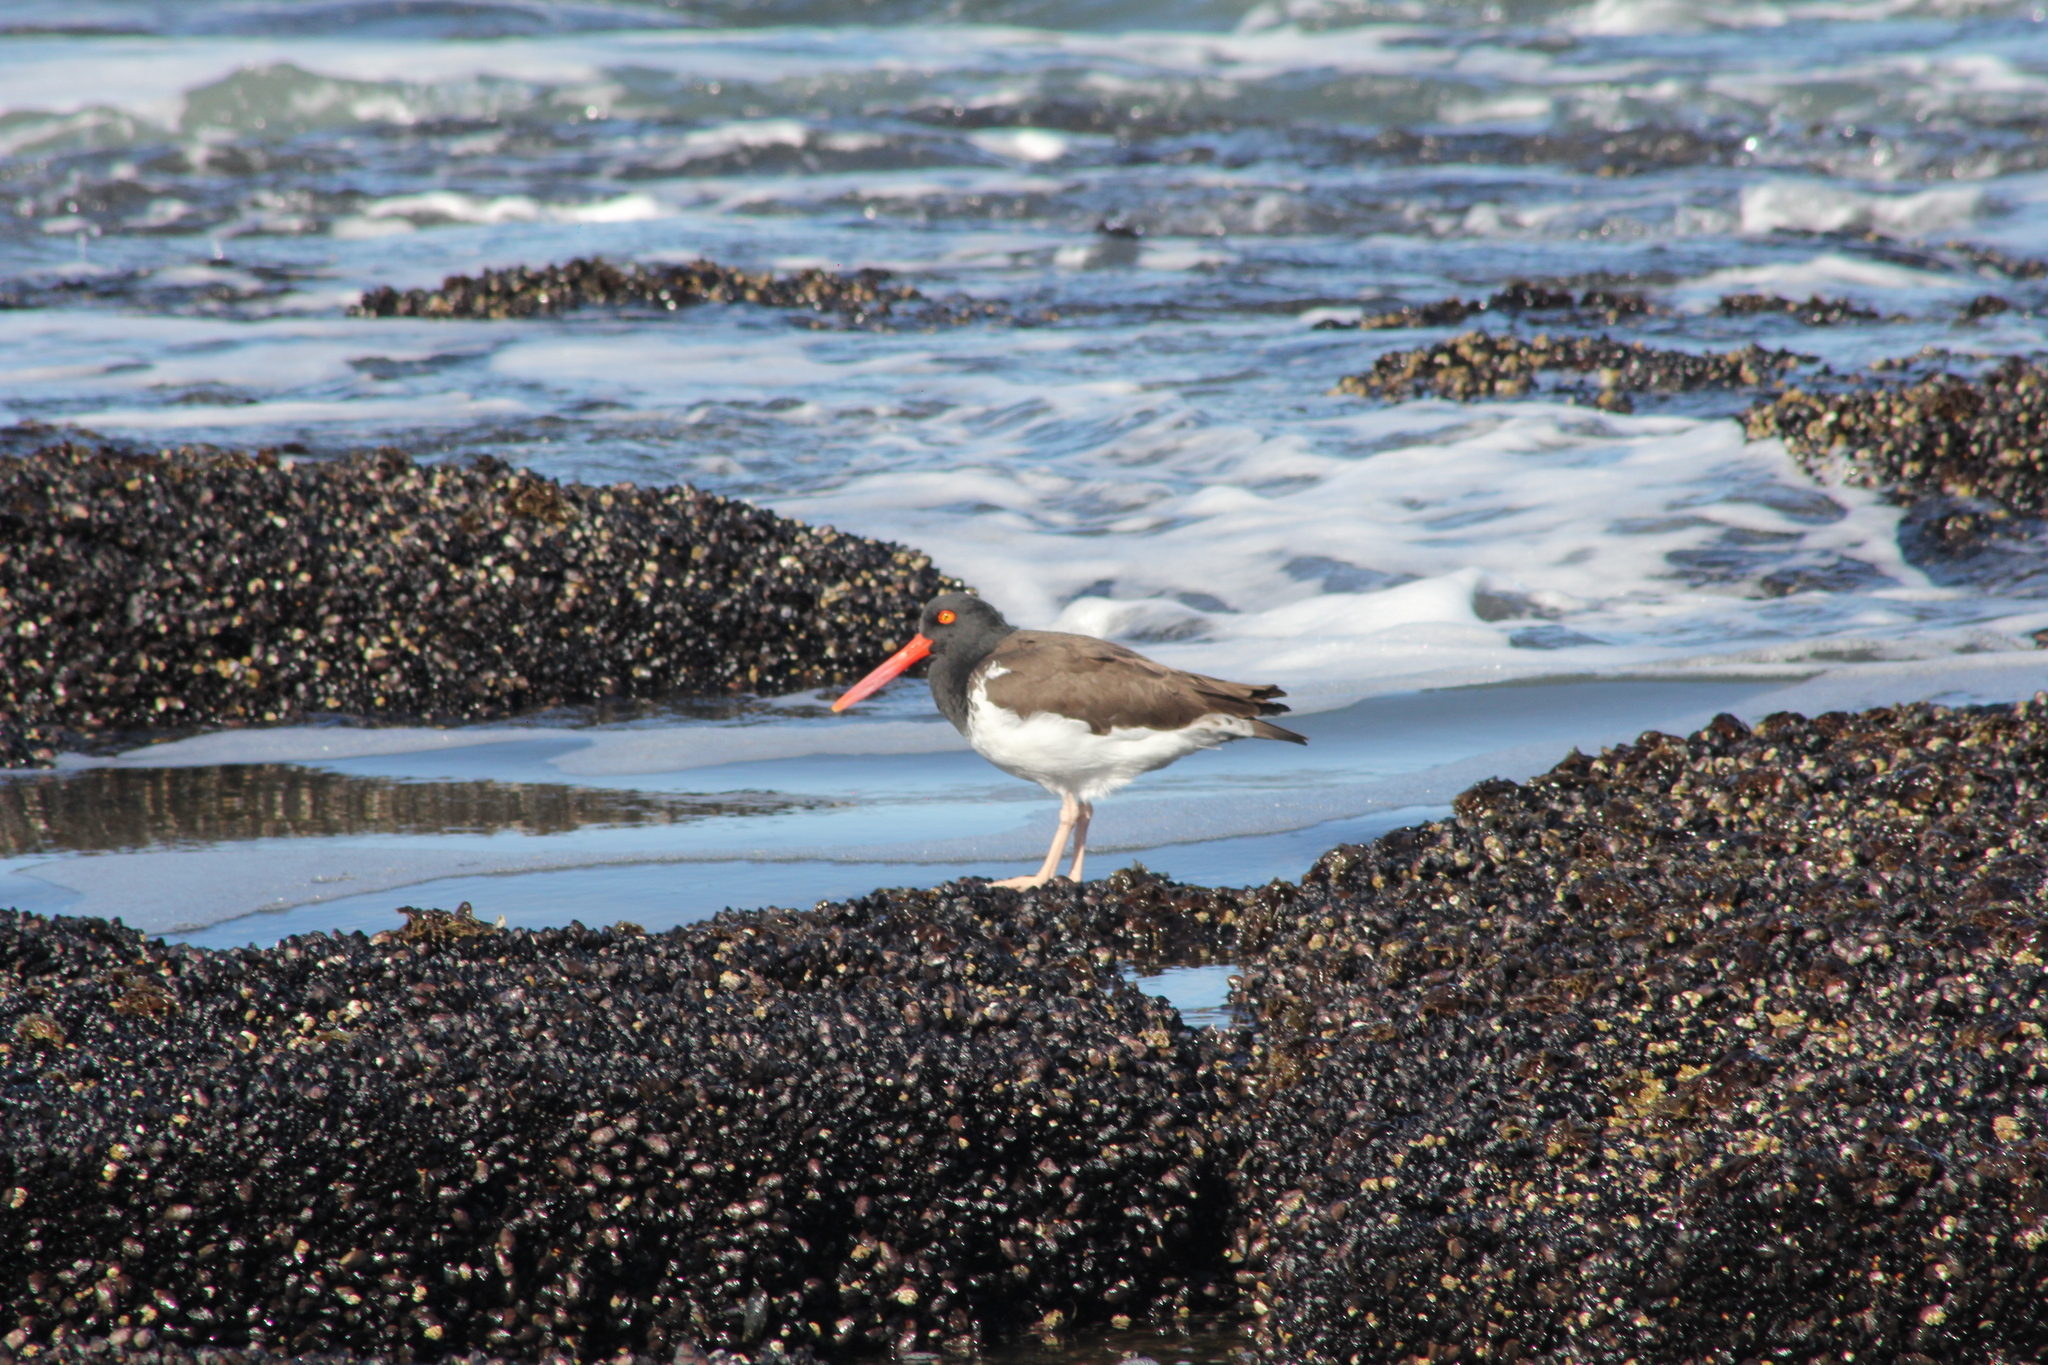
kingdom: Animalia
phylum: Chordata
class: Aves
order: Charadriiformes
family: Haematopodidae
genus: Haematopus
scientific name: Haematopus palliatus
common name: American oystercatcher
